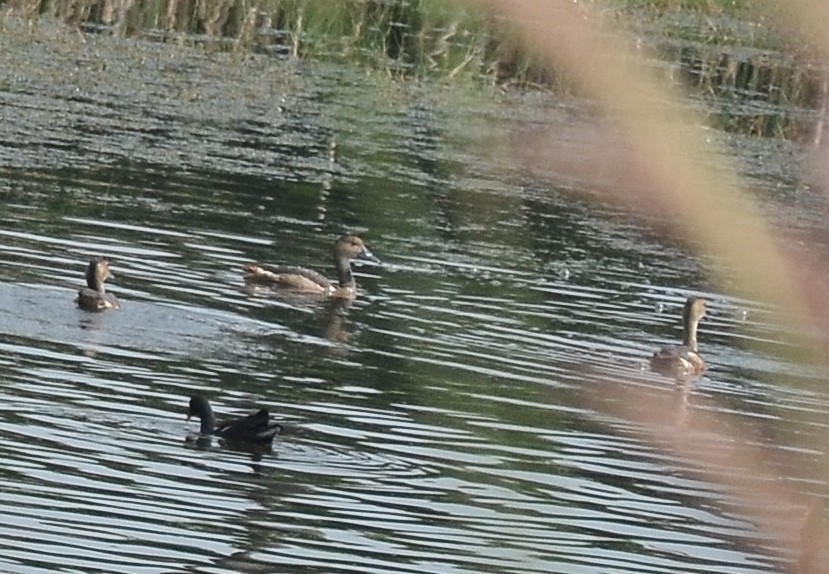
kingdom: Animalia
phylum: Chordata
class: Aves
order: Anseriformes
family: Anatidae
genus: Dendrocygna
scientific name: Dendrocygna javanica
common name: Lesser whistling-duck
